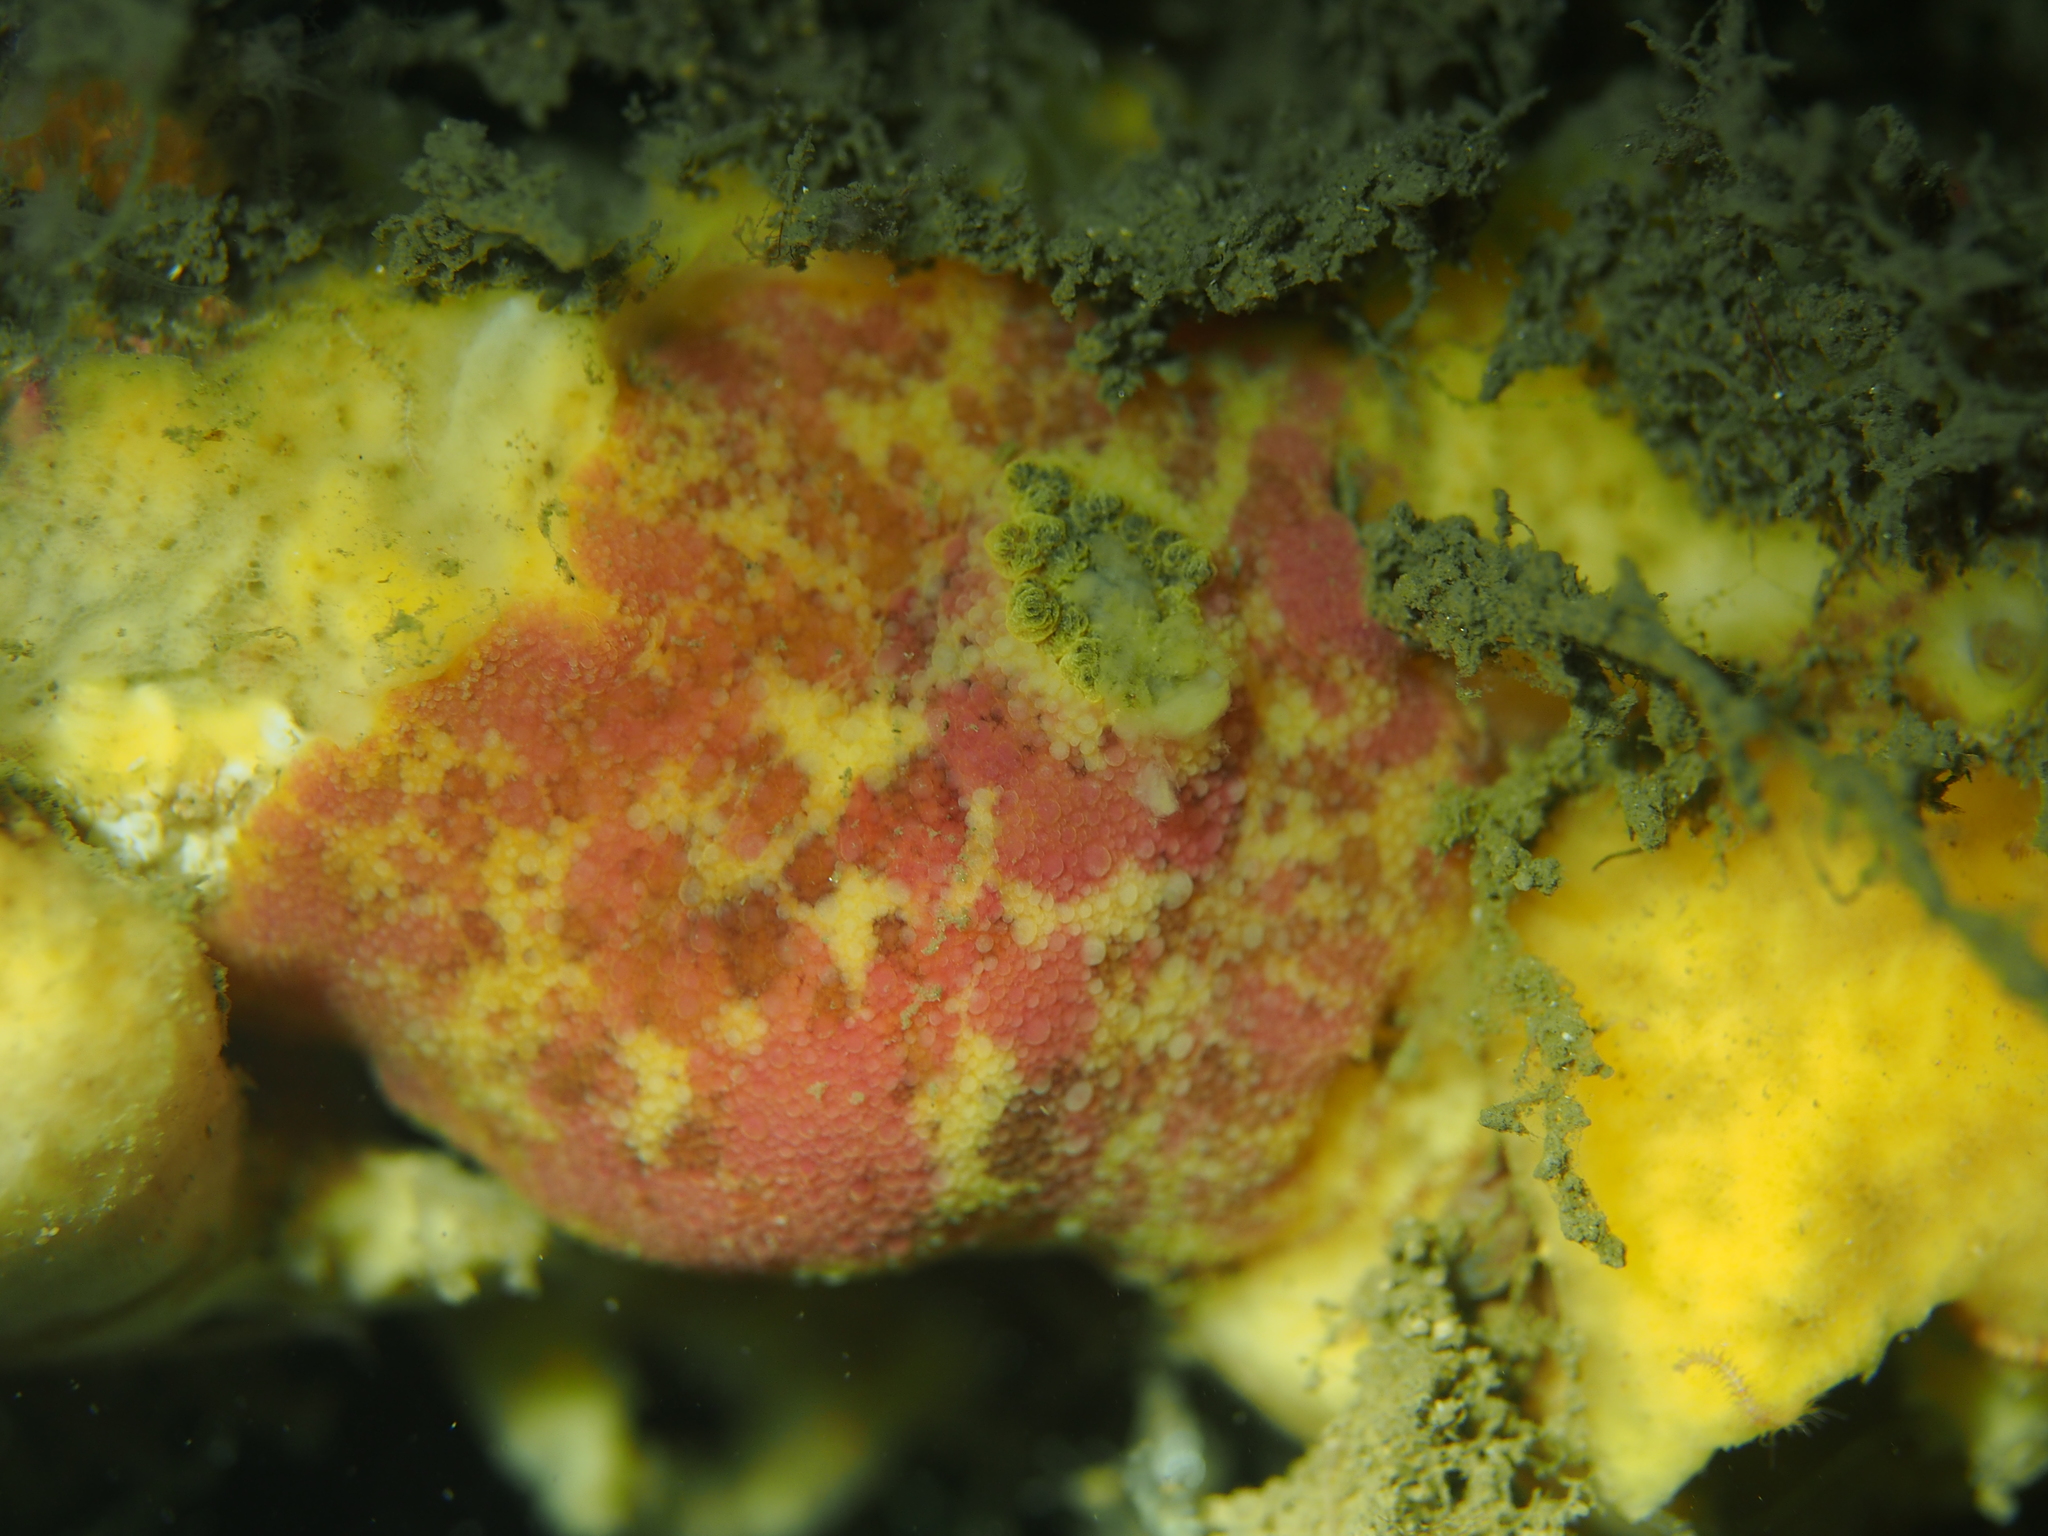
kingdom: Animalia
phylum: Mollusca
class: Gastropoda
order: Nudibranchia
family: Dorididae
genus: Doris
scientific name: Doris pseudoargus
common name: Sea lemon
